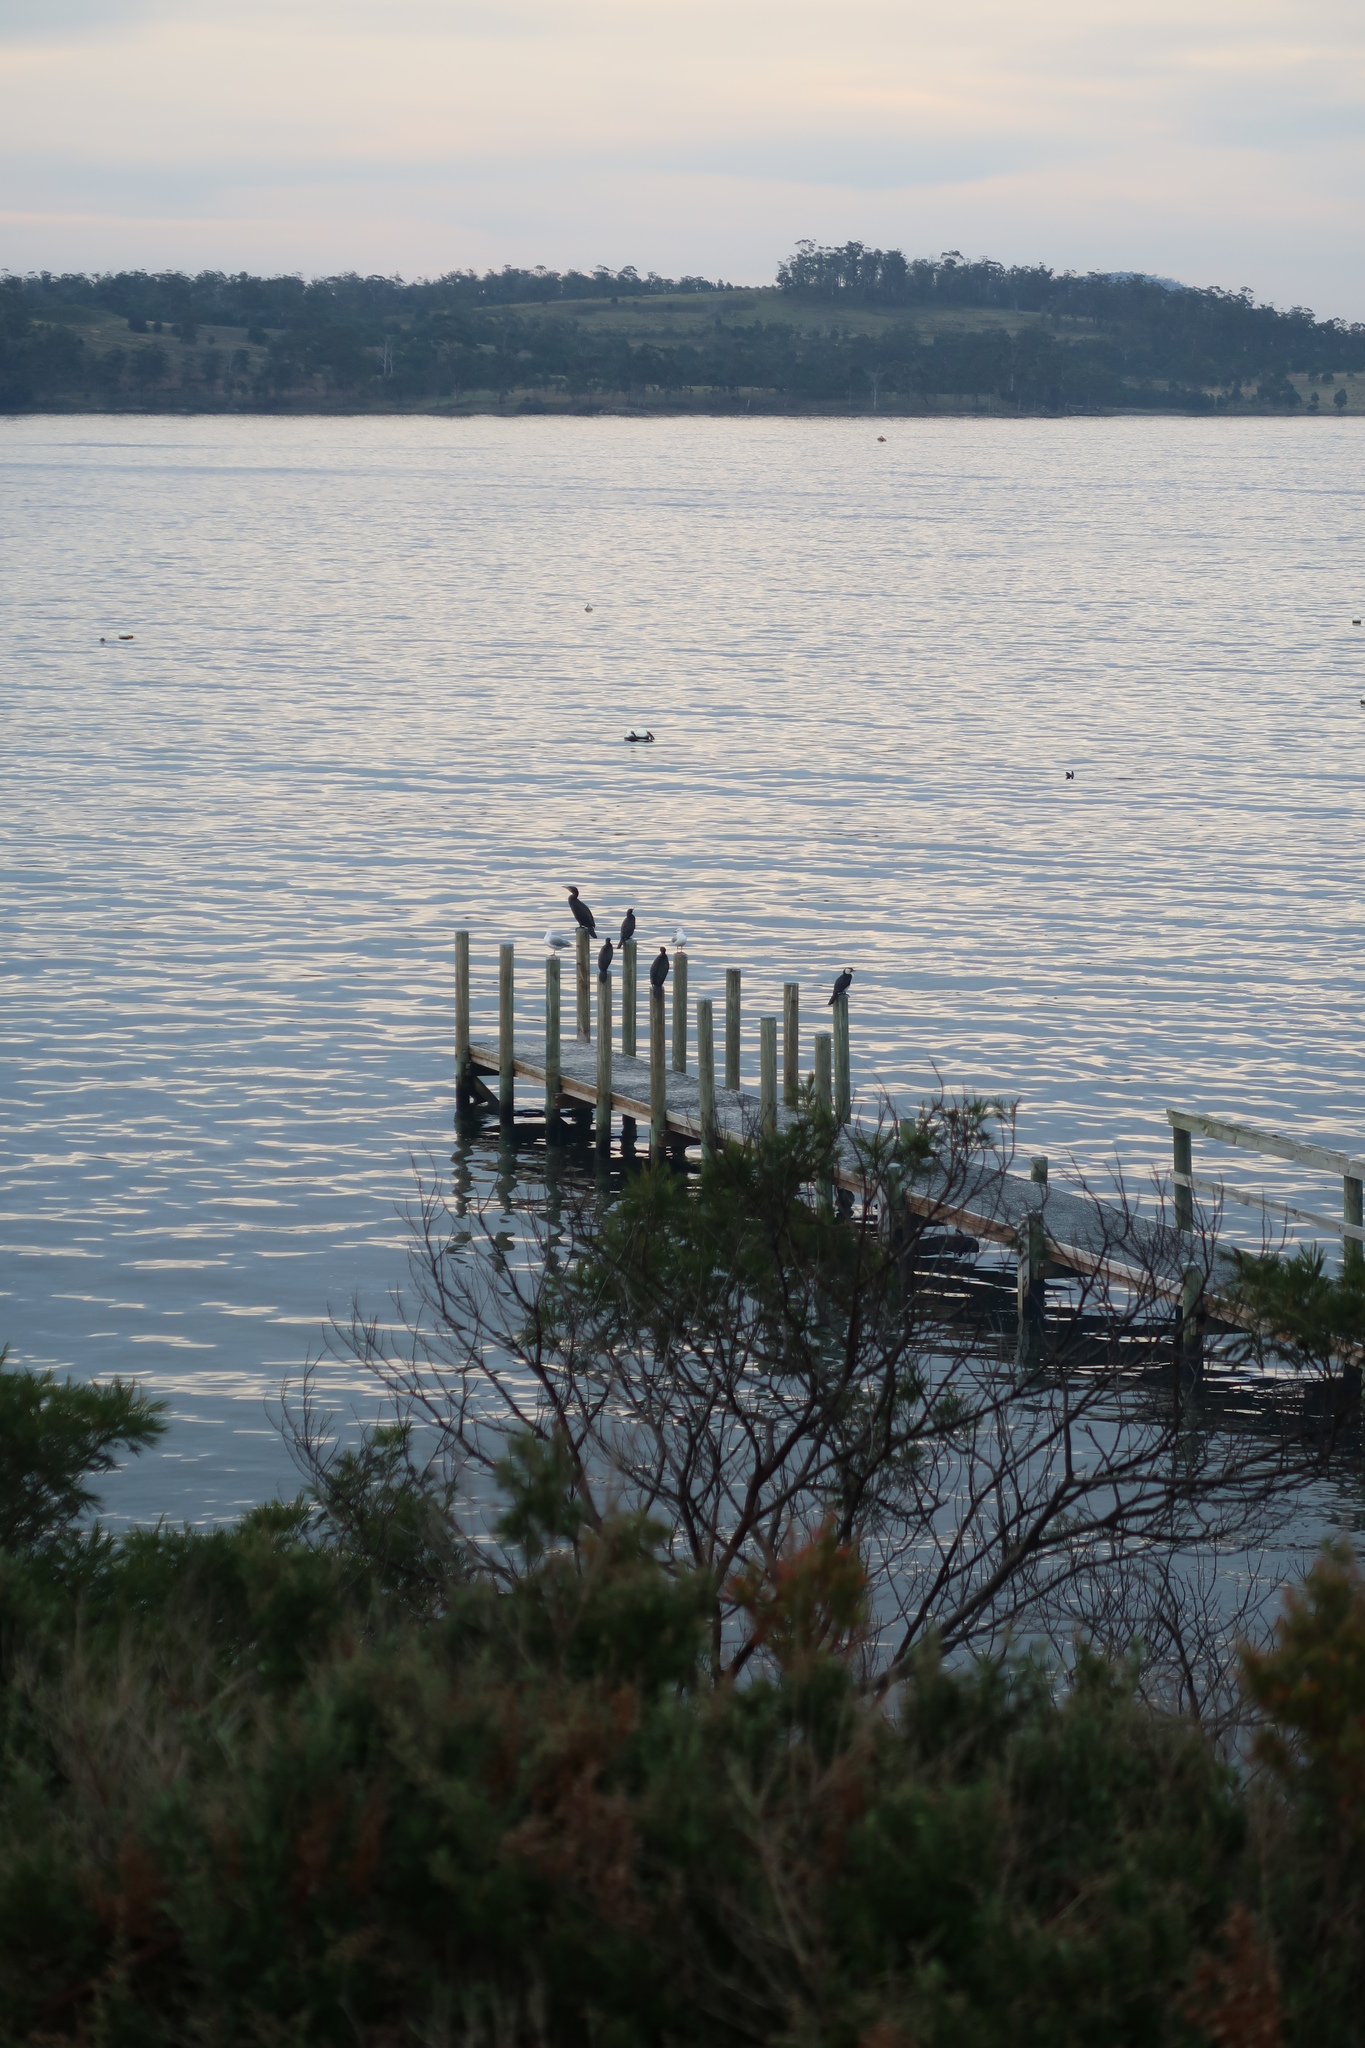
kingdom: Animalia
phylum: Chordata
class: Aves
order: Suliformes
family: Phalacrocoracidae
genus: Phalacrocorax
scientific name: Phalacrocorax sulcirostris
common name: Little black cormorant
